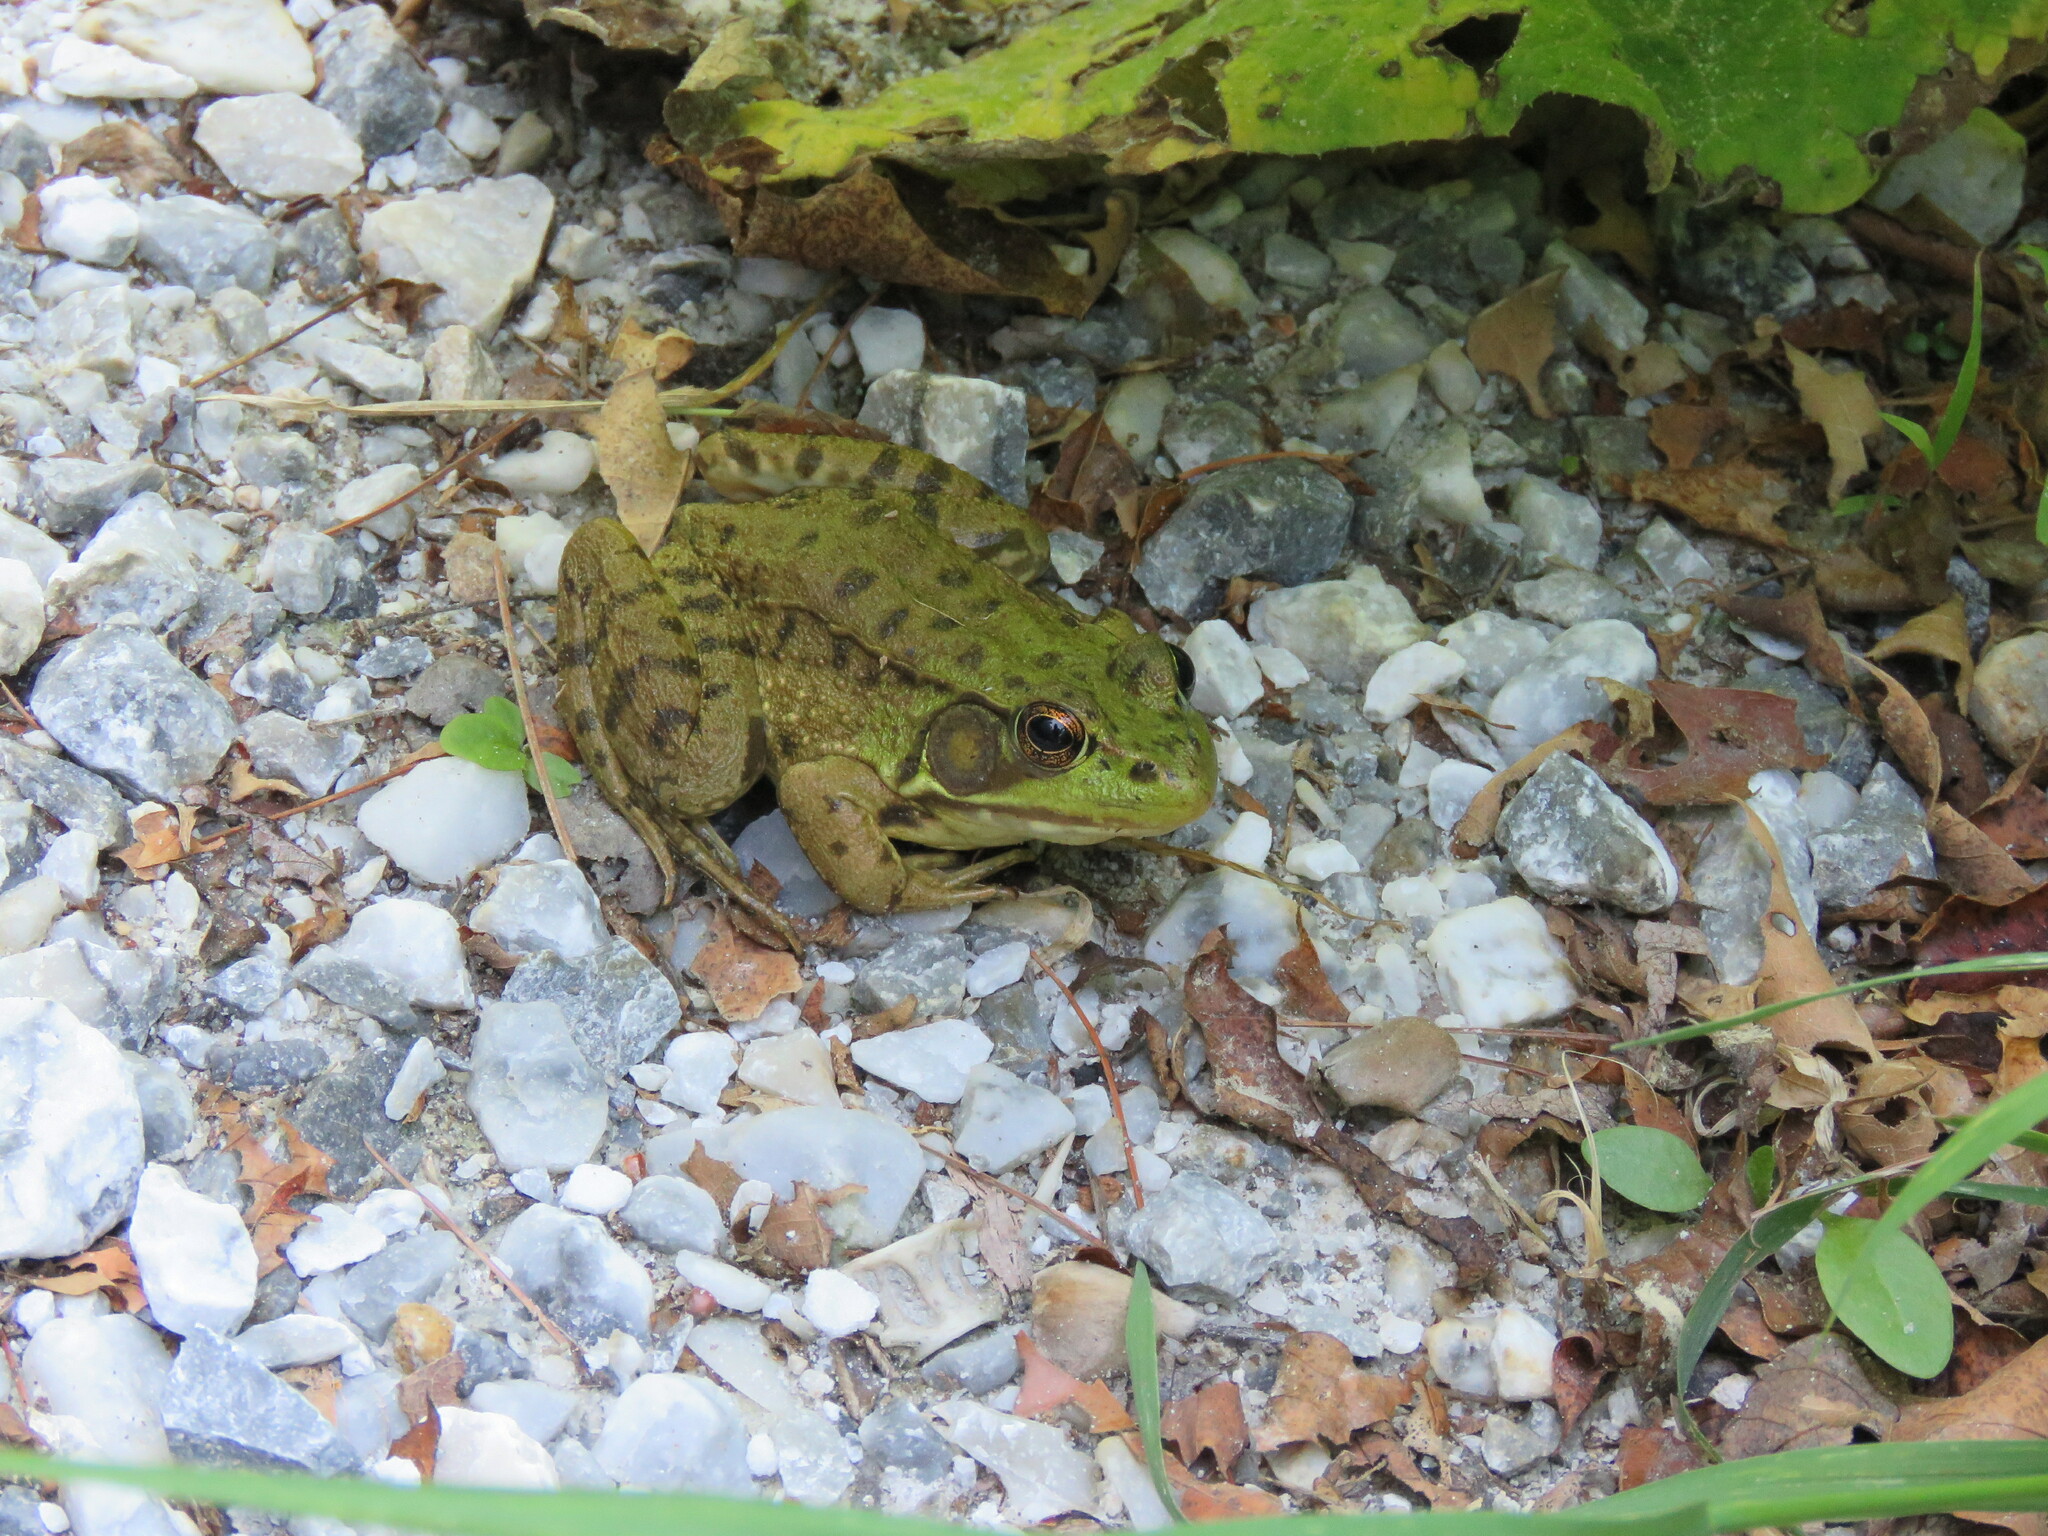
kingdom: Animalia
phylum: Chordata
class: Amphibia
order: Anura
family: Ranidae
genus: Lithobates
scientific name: Lithobates clamitans
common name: Green frog
